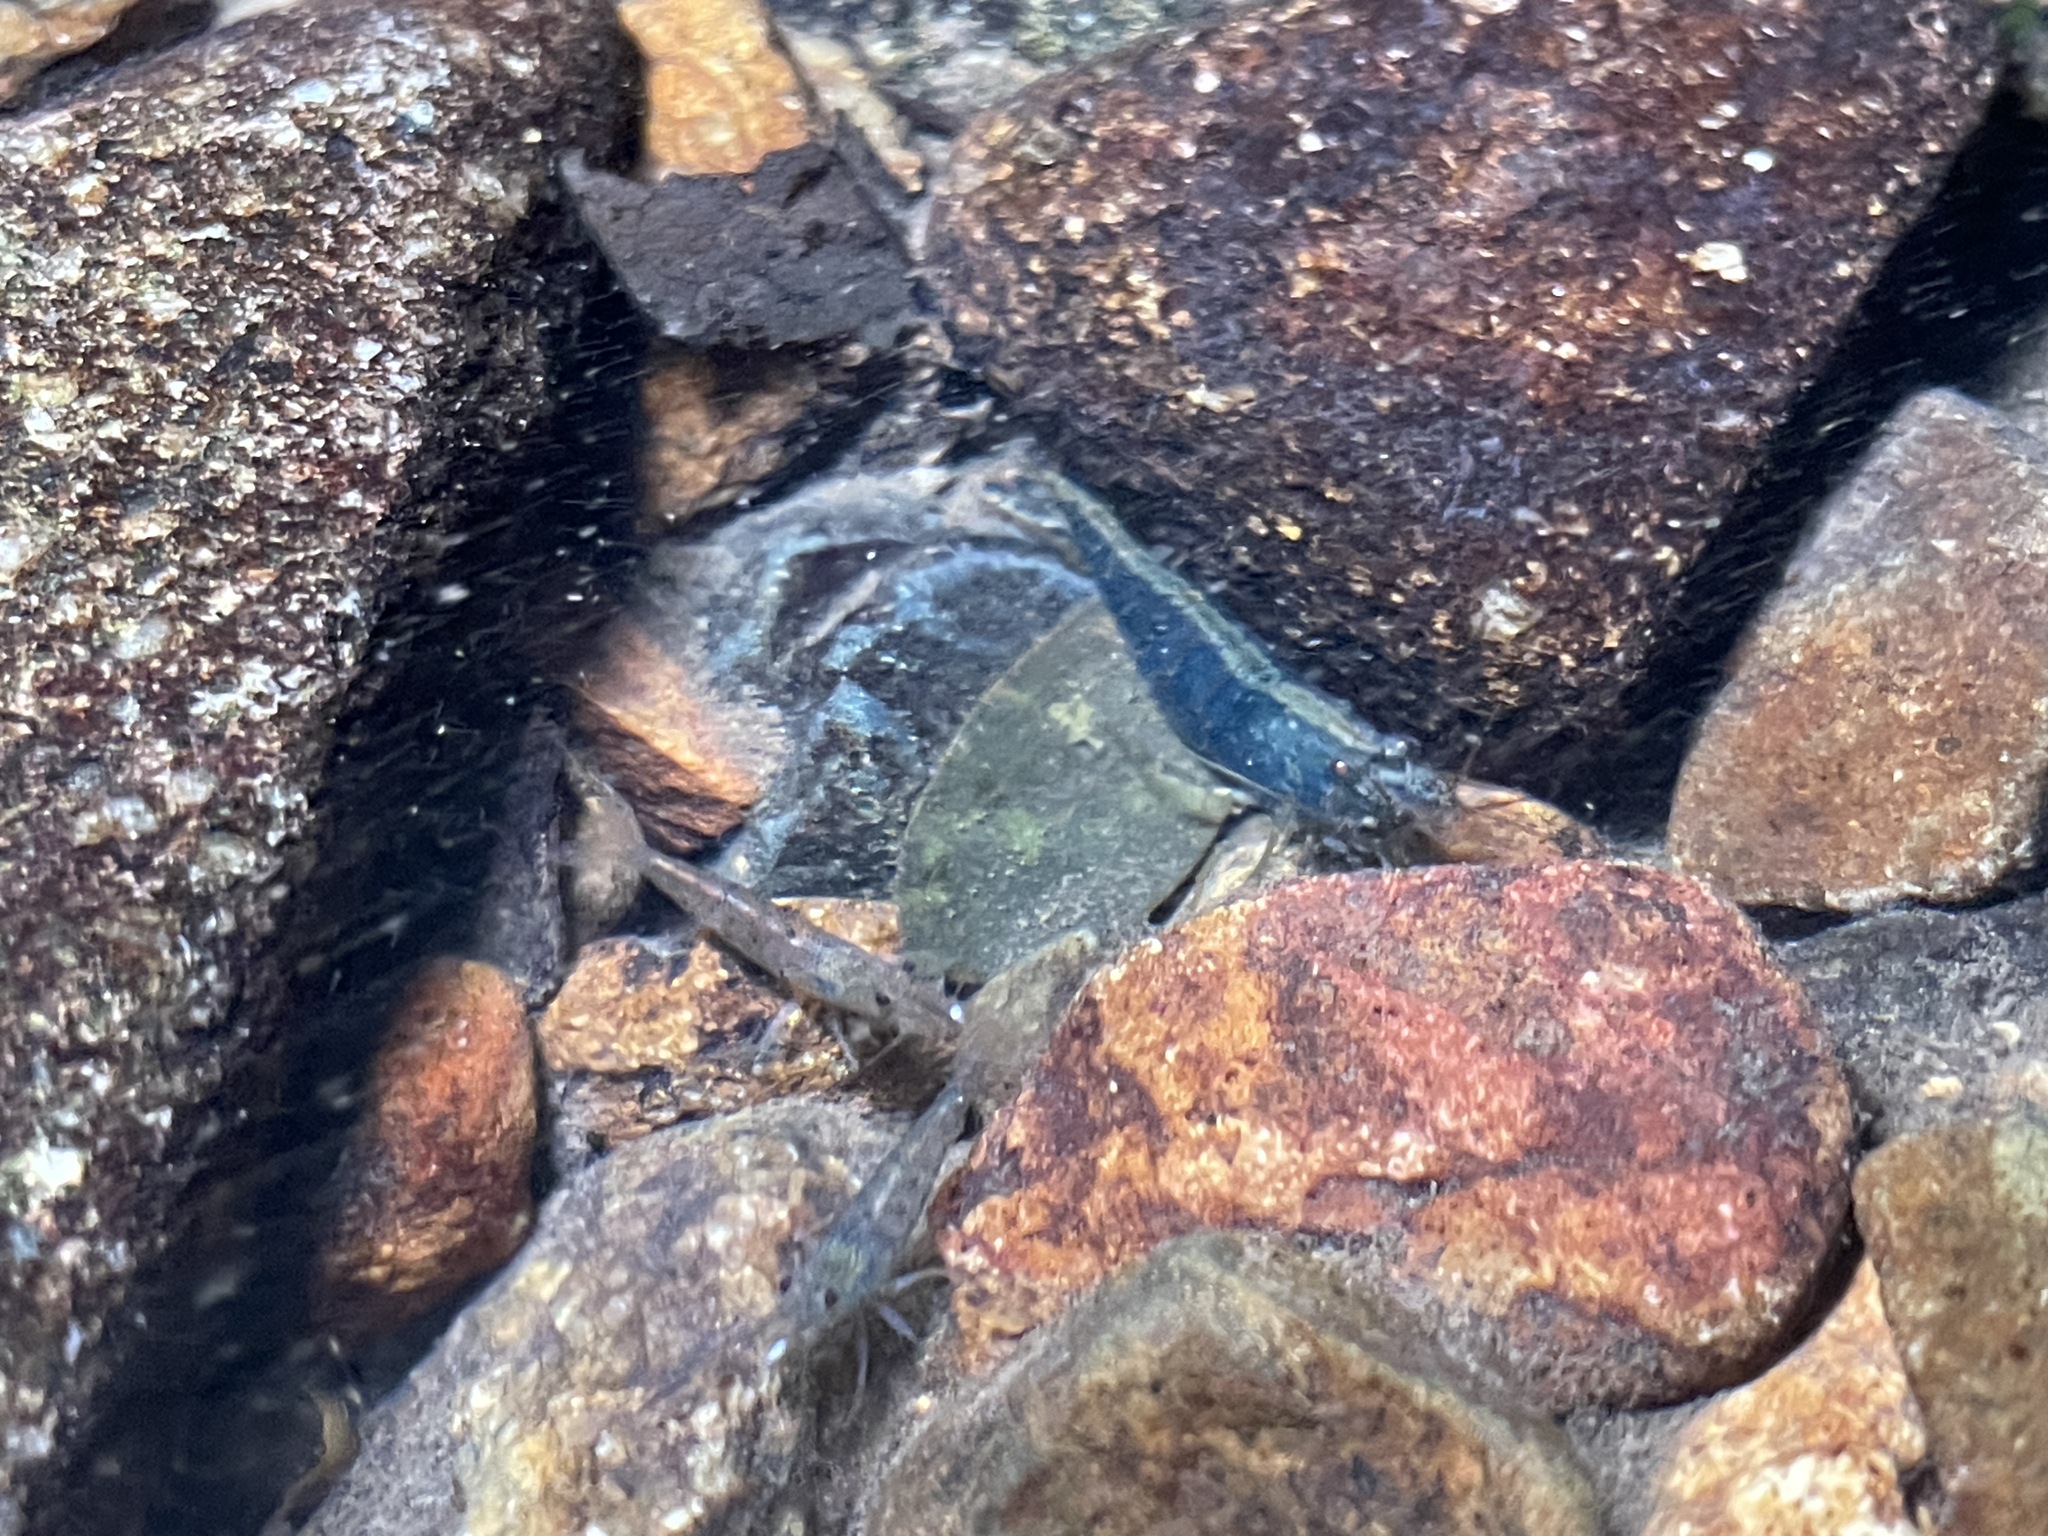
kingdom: Animalia
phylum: Arthropoda
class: Malacostraca
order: Decapoda
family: Atyidae
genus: Caridina
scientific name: Caridina cantonensis
